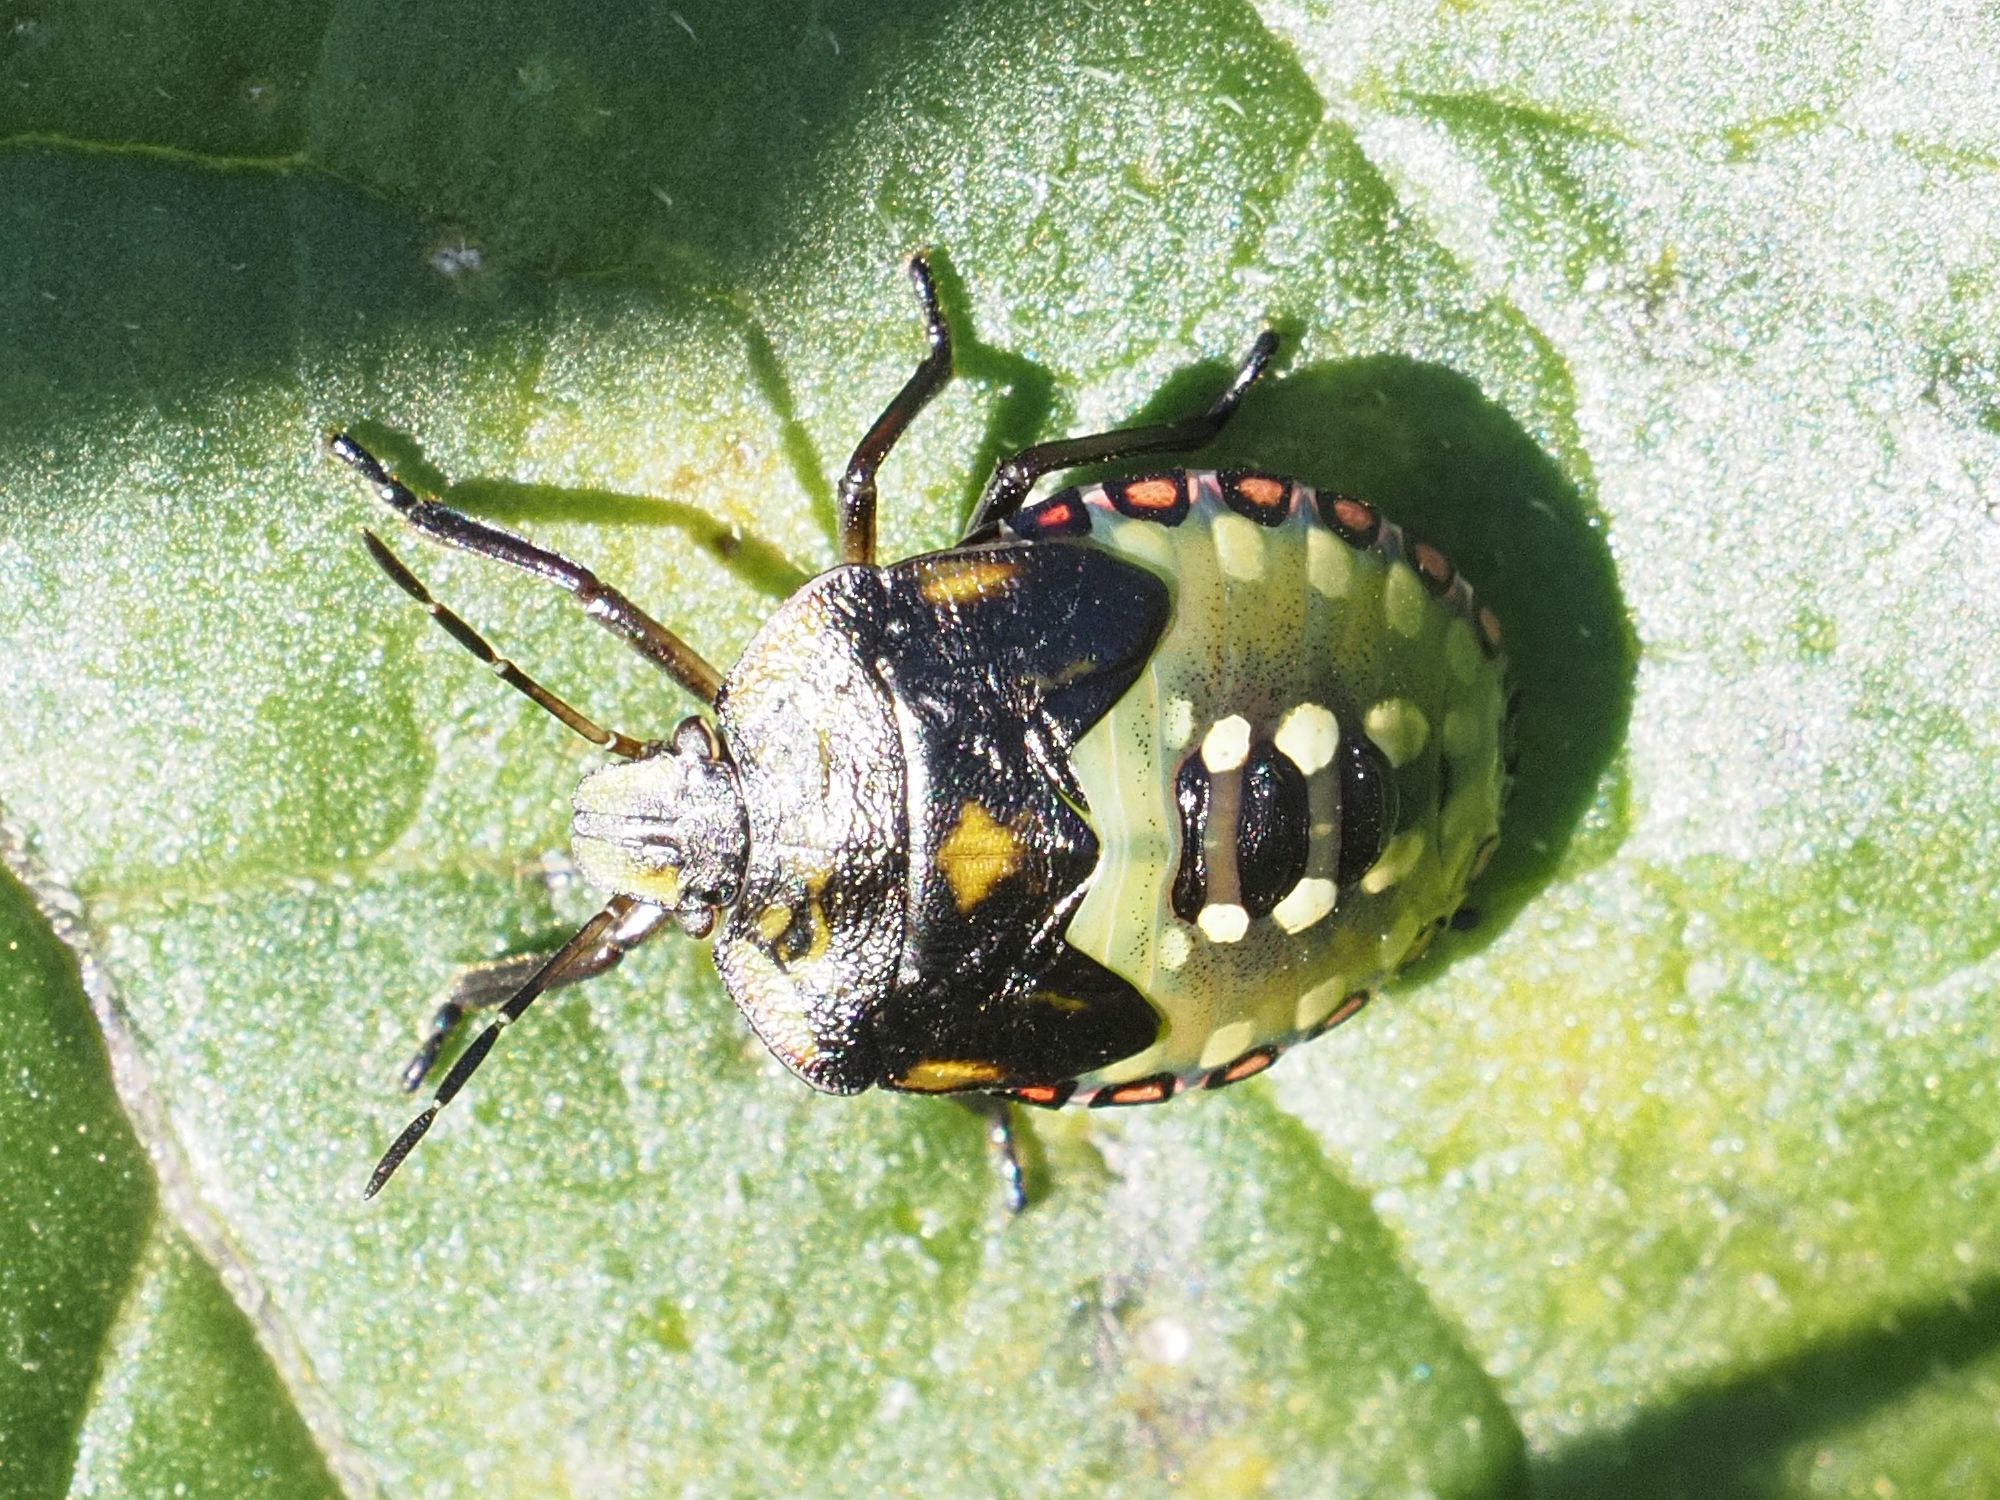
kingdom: Animalia
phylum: Arthropoda
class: Insecta
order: Hemiptera
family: Pentatomidae
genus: Nezara
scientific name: Nezara viridula
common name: Southern green stink bug
